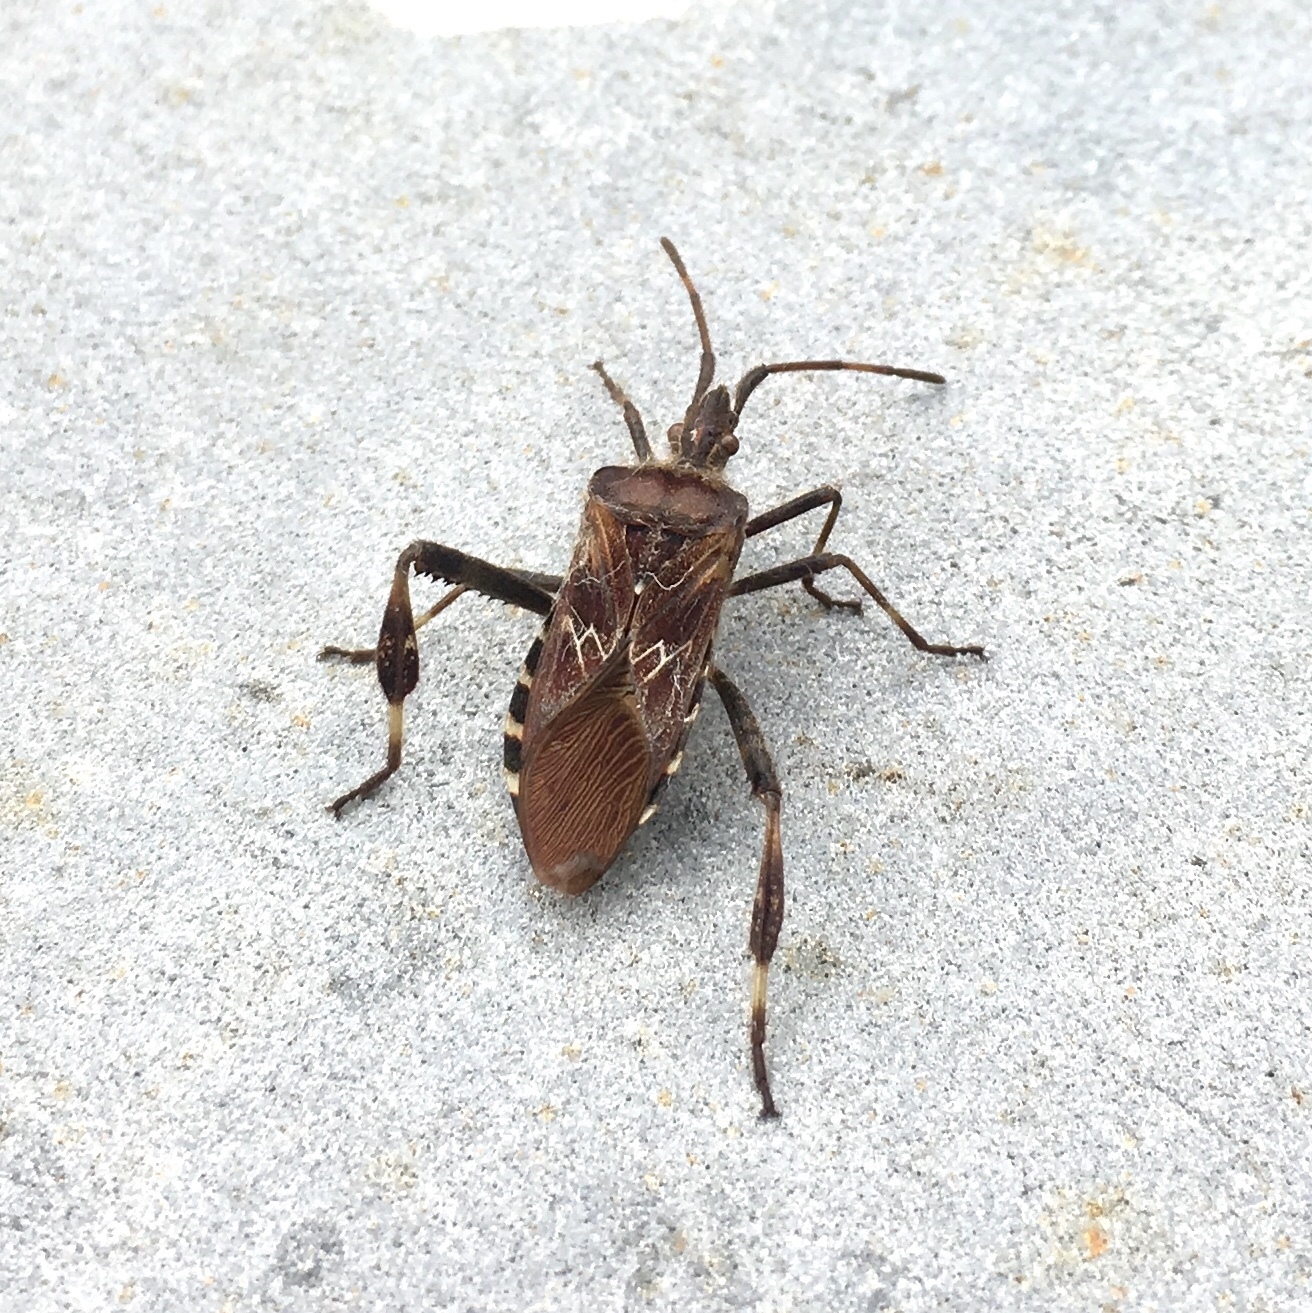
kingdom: Animalia
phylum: Arthropoda
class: Insecta
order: Hemiptera
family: Coreidae
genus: Leptoglossus
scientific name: Leptoglossus occidentalis
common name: Western conifer-seed bug
